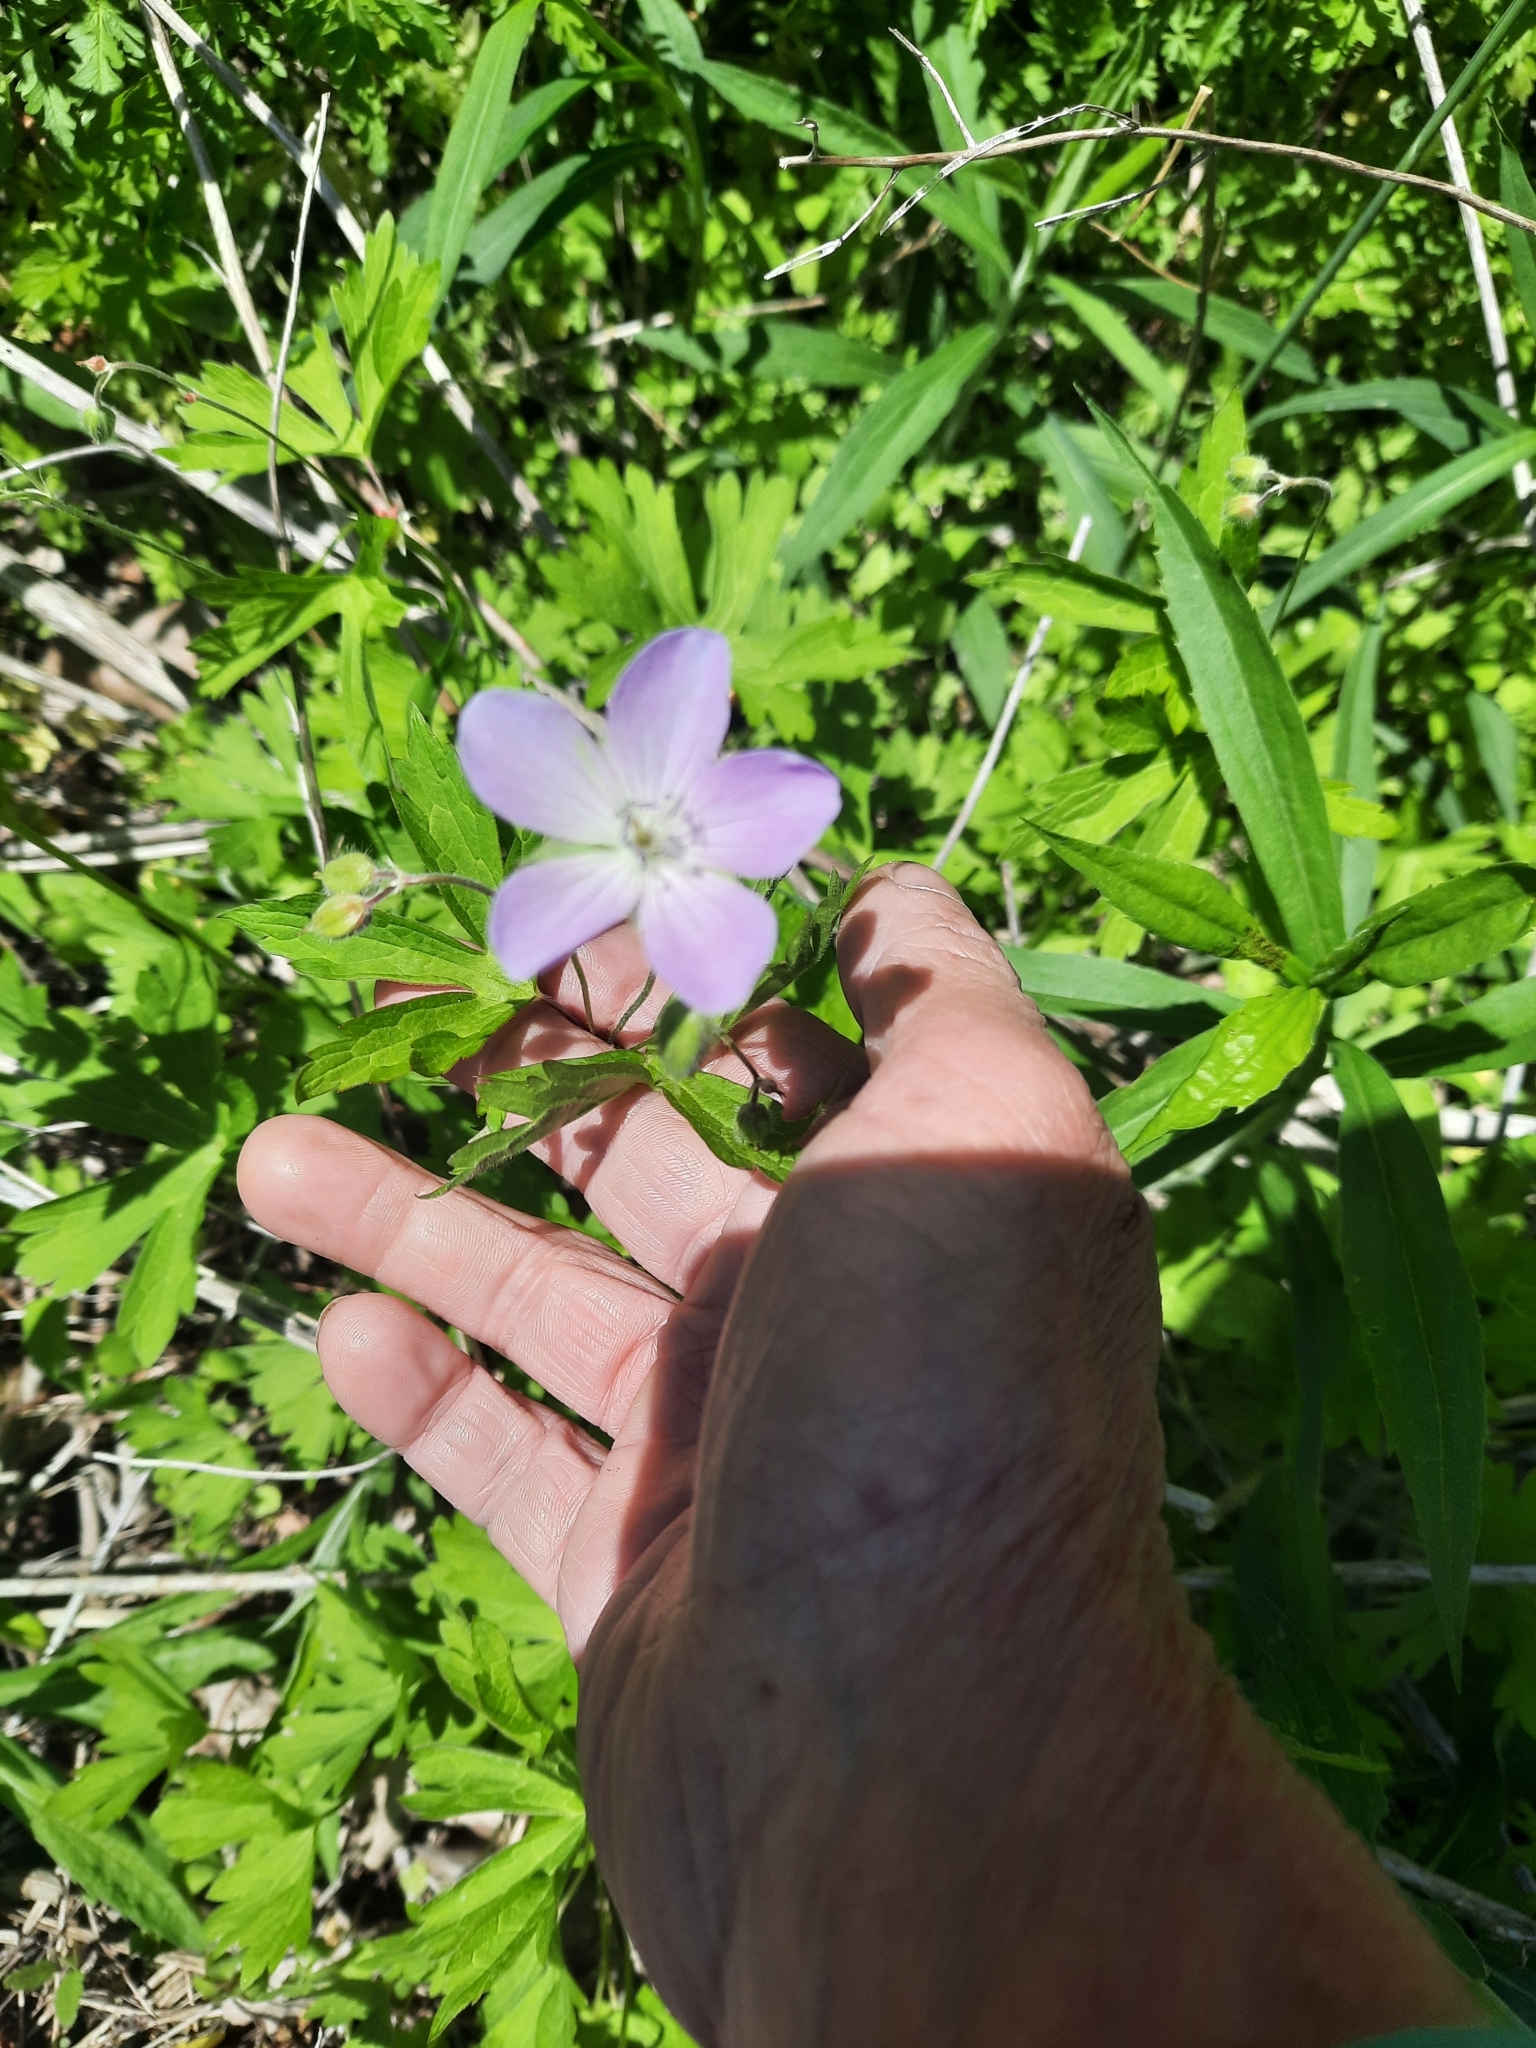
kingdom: Plantae
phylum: Tracheophyta
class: Magnoliopsida
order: Geraniales
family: Geraniaceae
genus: Geranium
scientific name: Geranium maculatum
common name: Spotted geranium
